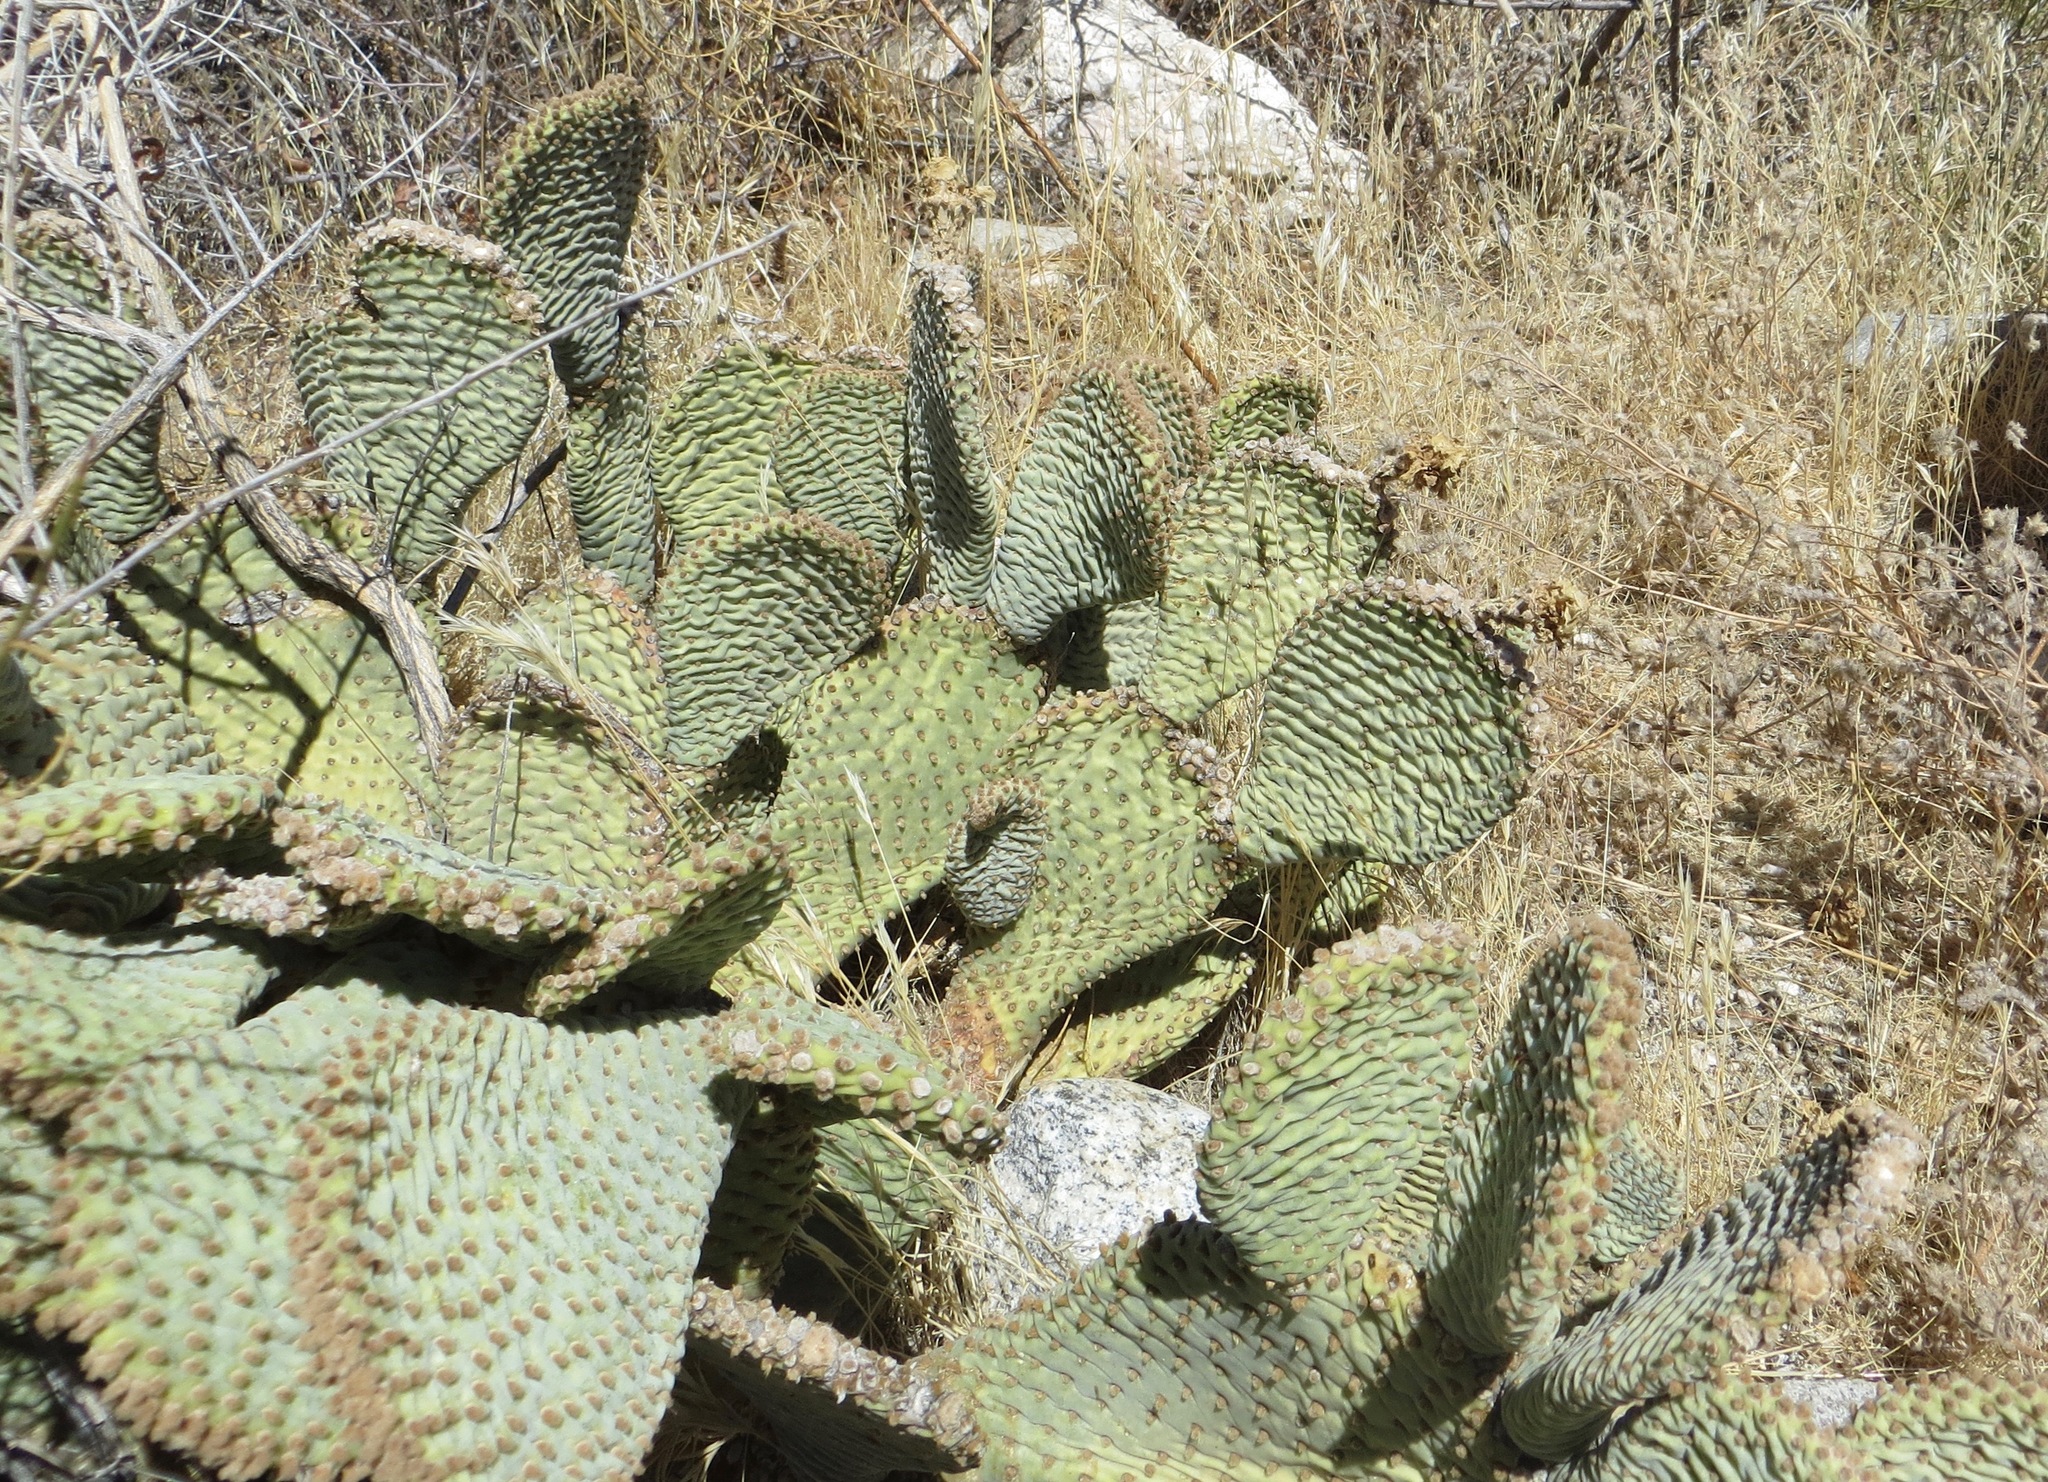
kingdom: Plantae
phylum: Tracheophyta
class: Magnoliopsida
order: Caryophyllales
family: Cactaceae
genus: Opuntia
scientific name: Opuntia basilaris
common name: Beavertail prickly-pear
